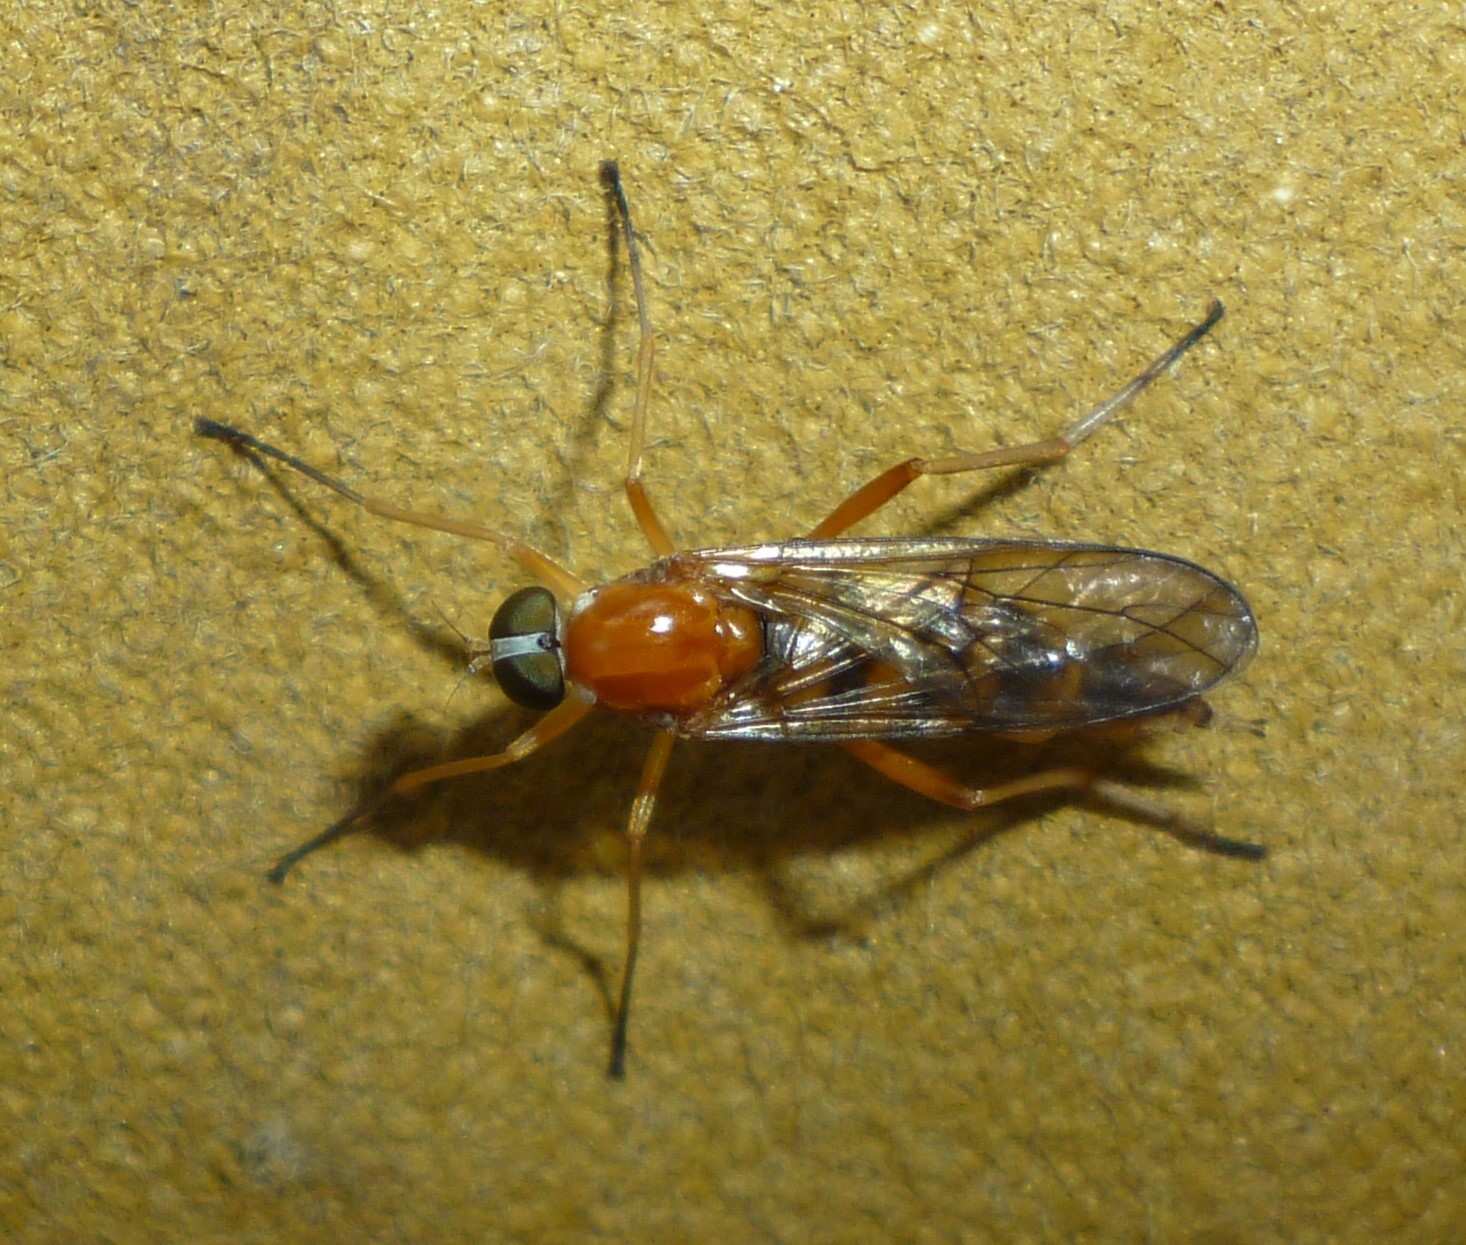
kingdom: Animalia
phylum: Arthropoda
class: Insecta
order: Diptera
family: Xylophagidae
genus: Dialysis
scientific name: Dialysis elongata
